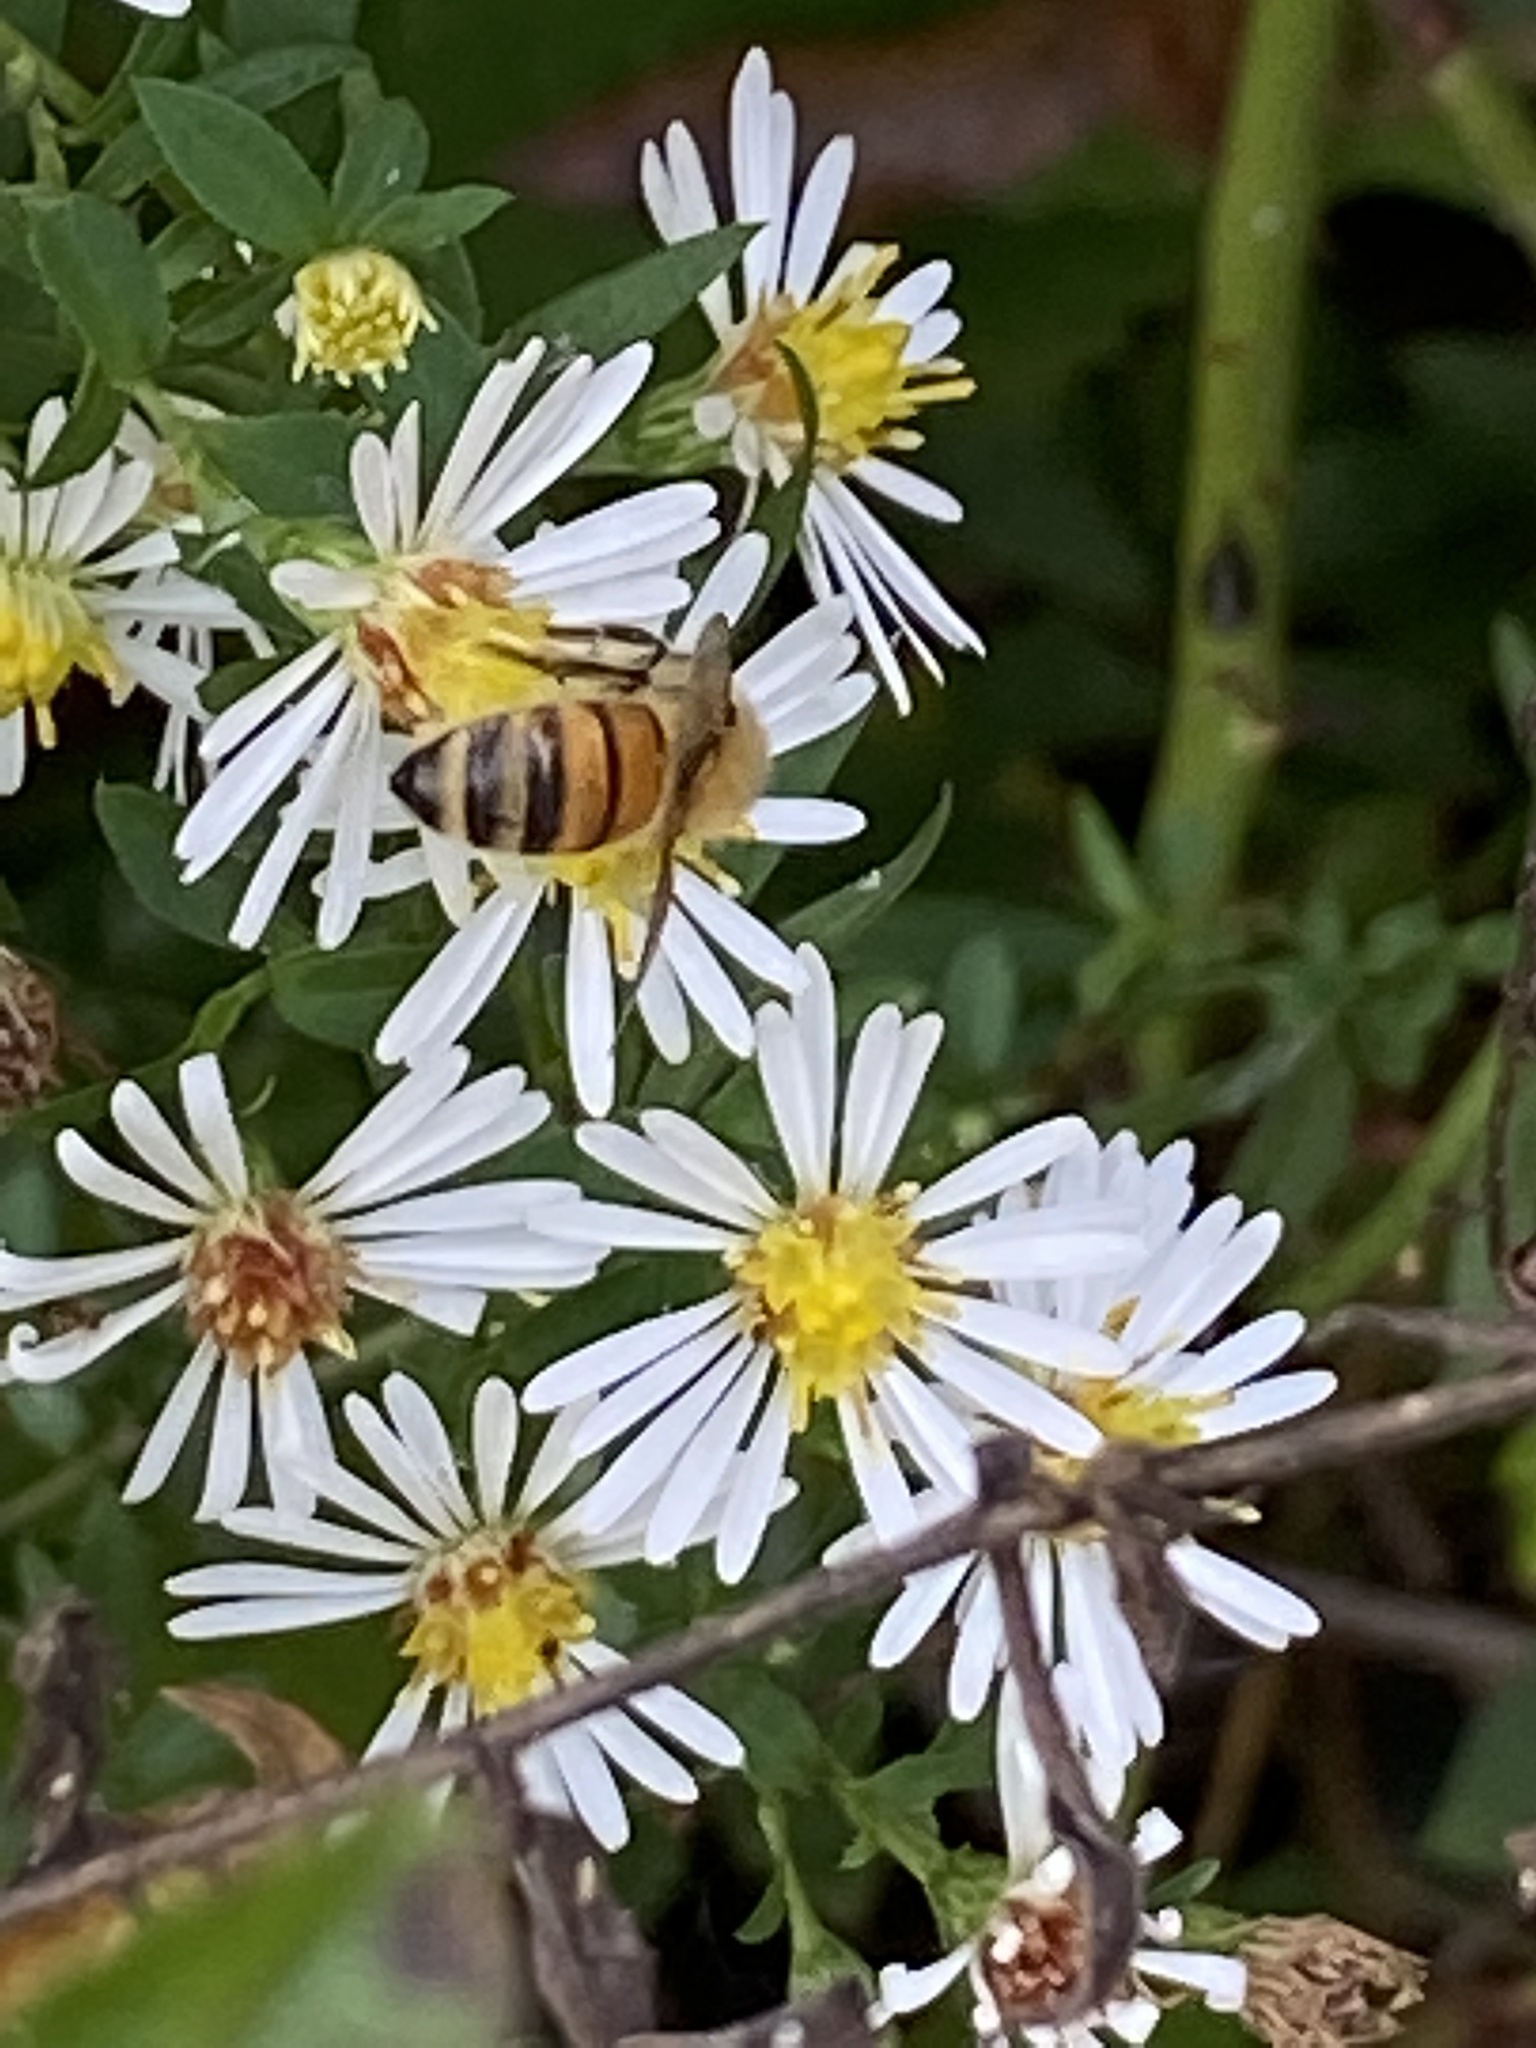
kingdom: Animalia
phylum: Arthropoda
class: Insecta
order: Hymenoptera
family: Apidae
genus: Apis
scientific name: Apis mellifera
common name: Honey bee
